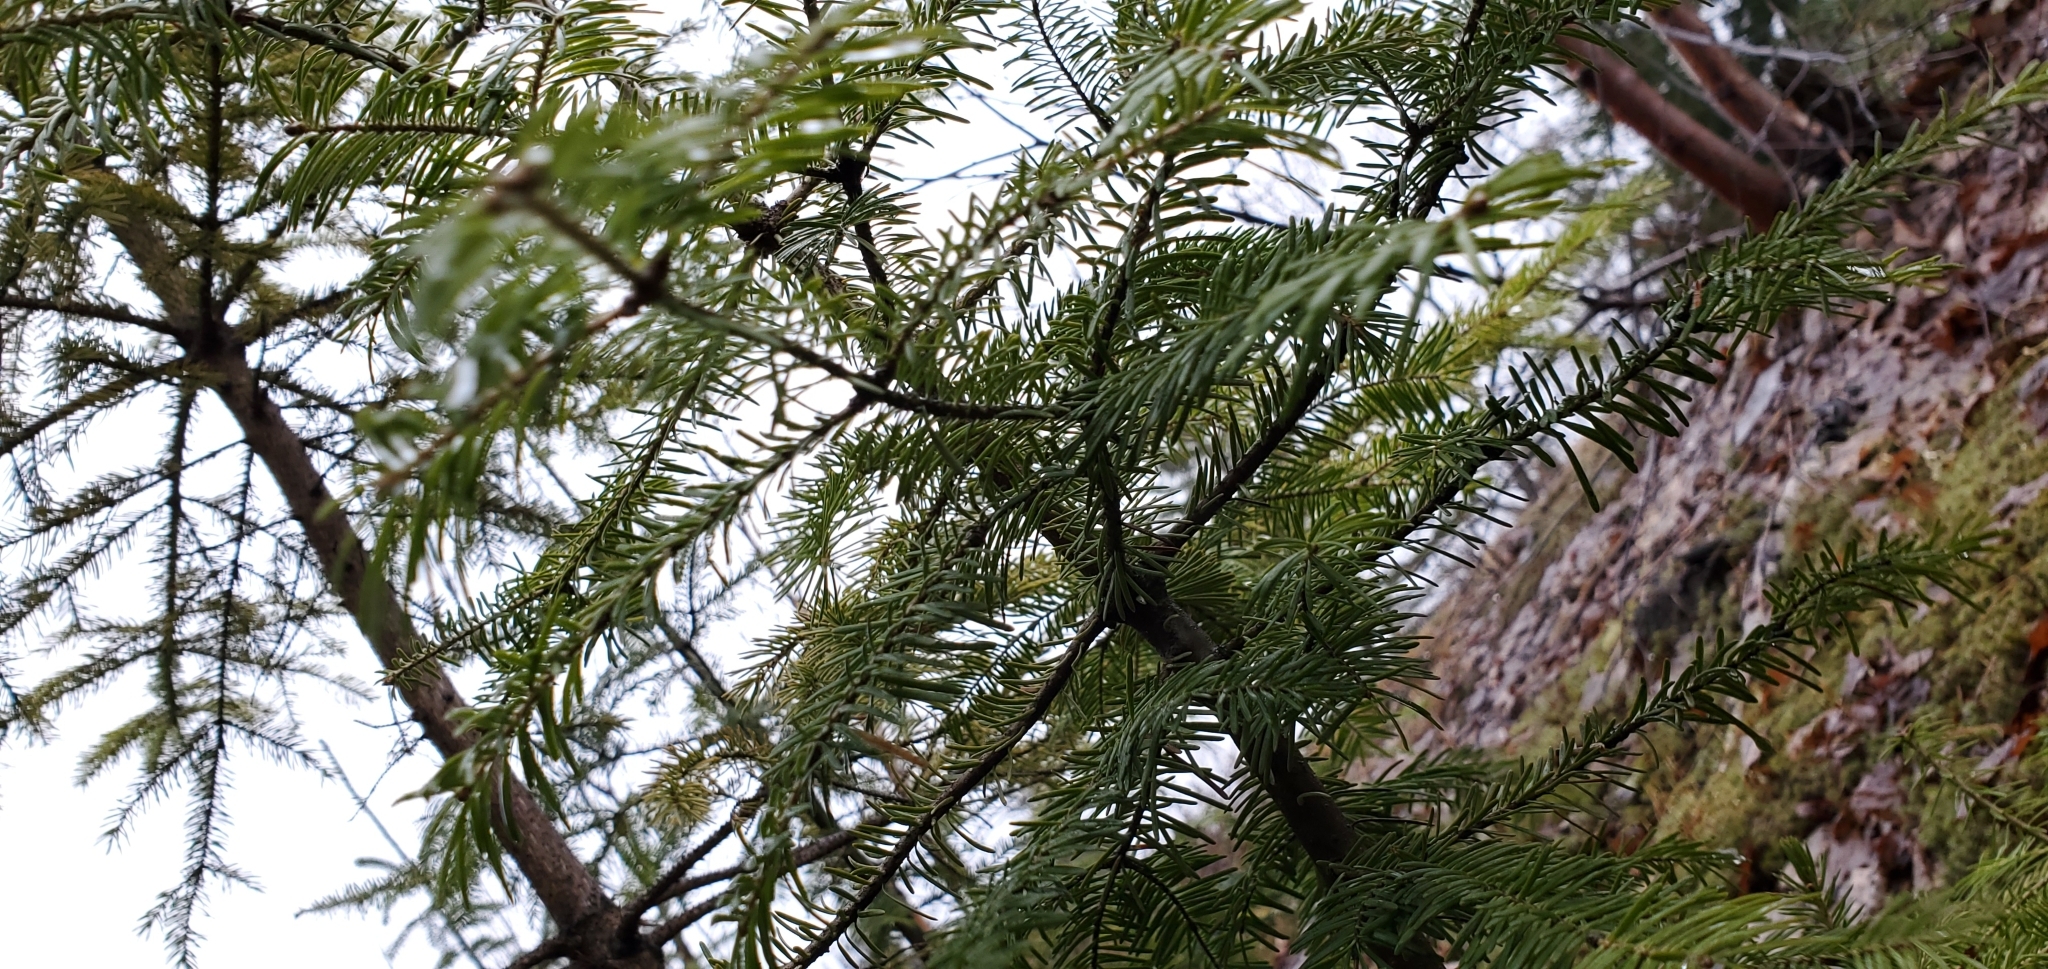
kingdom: Plantae
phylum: Tracheophyta
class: Pinopsida
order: Pinales
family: Pinaceae
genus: Abies
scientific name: Abies balsamea
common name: Balsam fir
